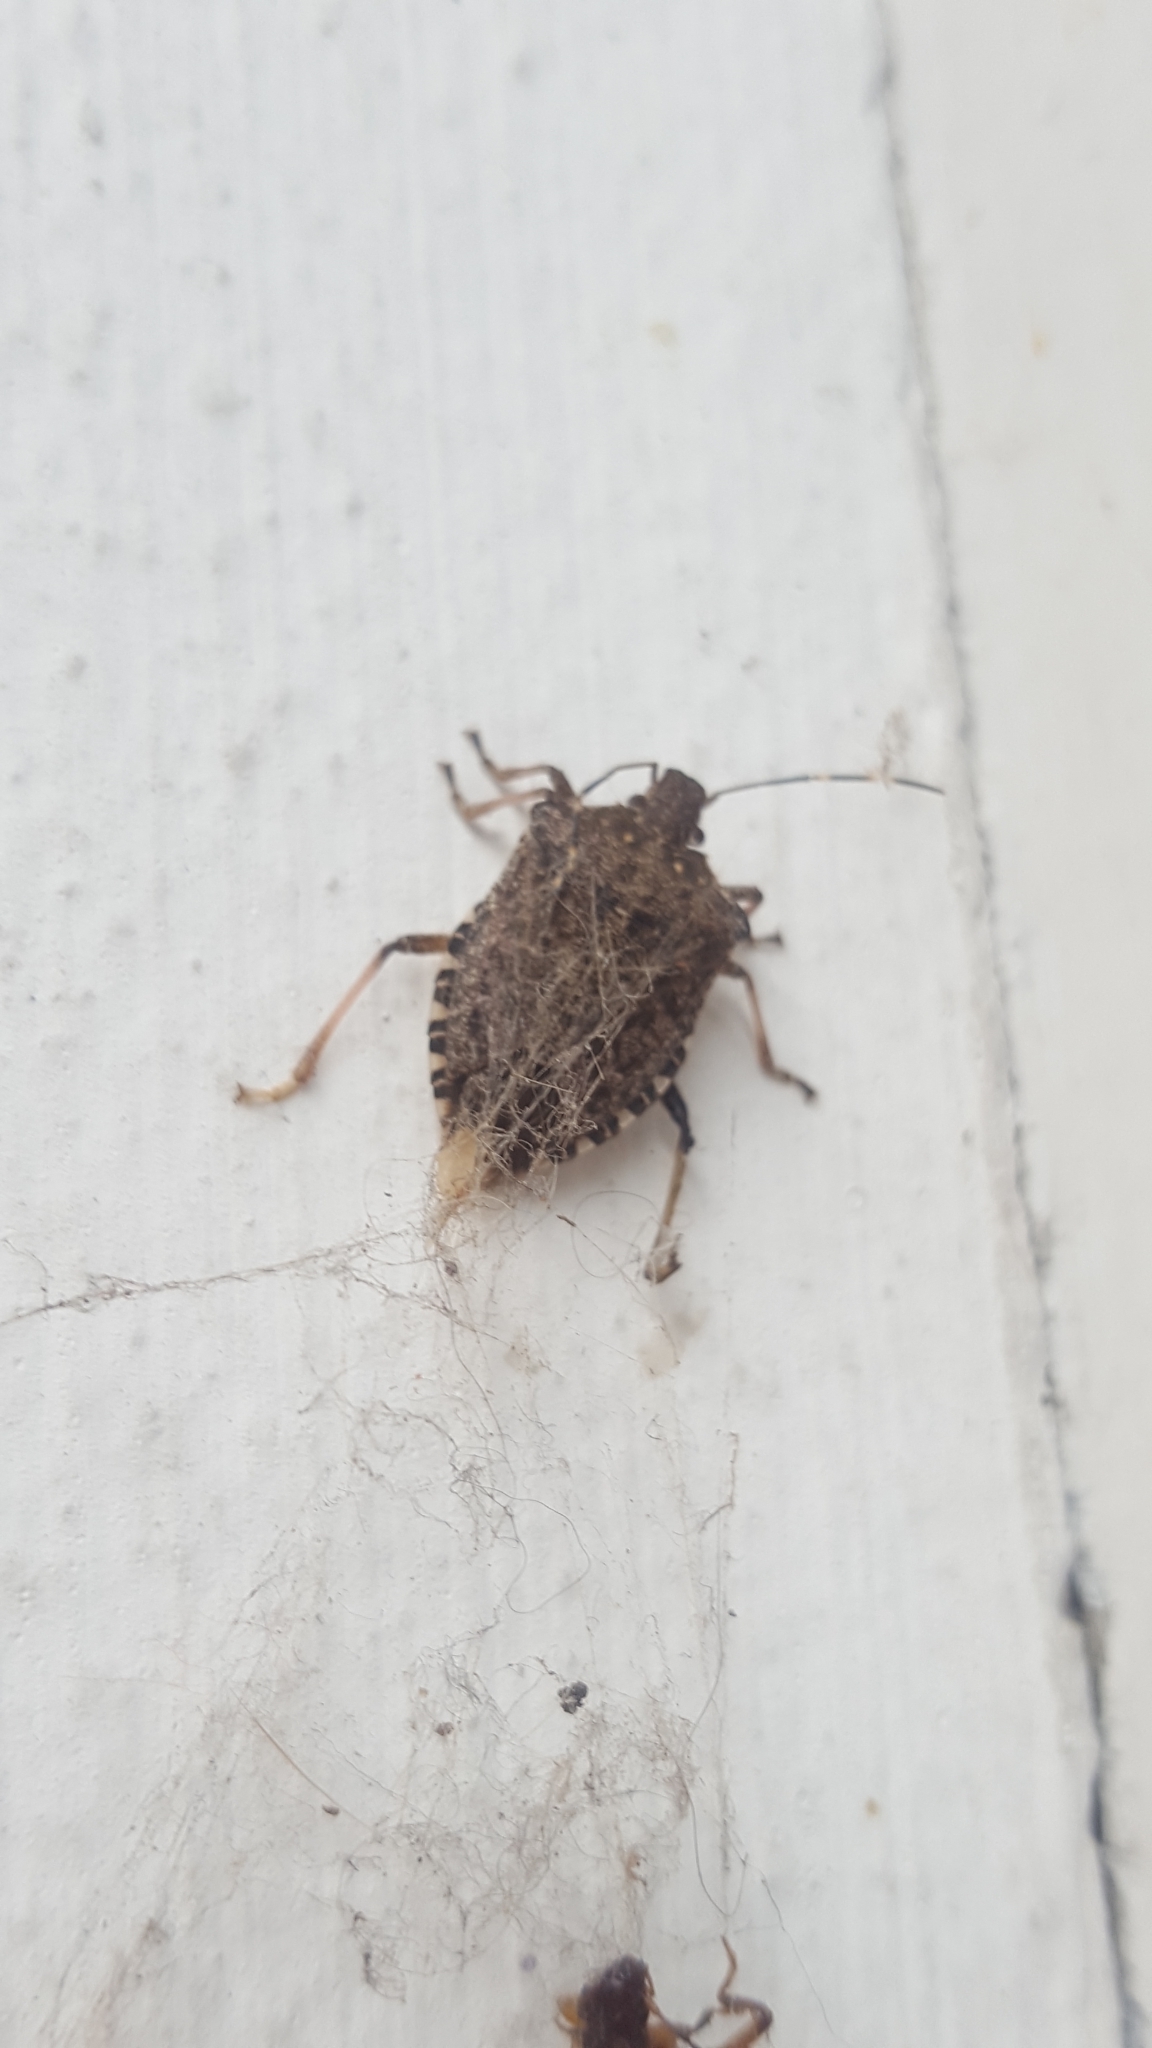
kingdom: Animalia
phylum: Arthropoda
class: Insecta
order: Hemiptera
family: Pentatomidae
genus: Halyomorpha
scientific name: Halyomorpha halys
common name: Brown marmorated stink bug
